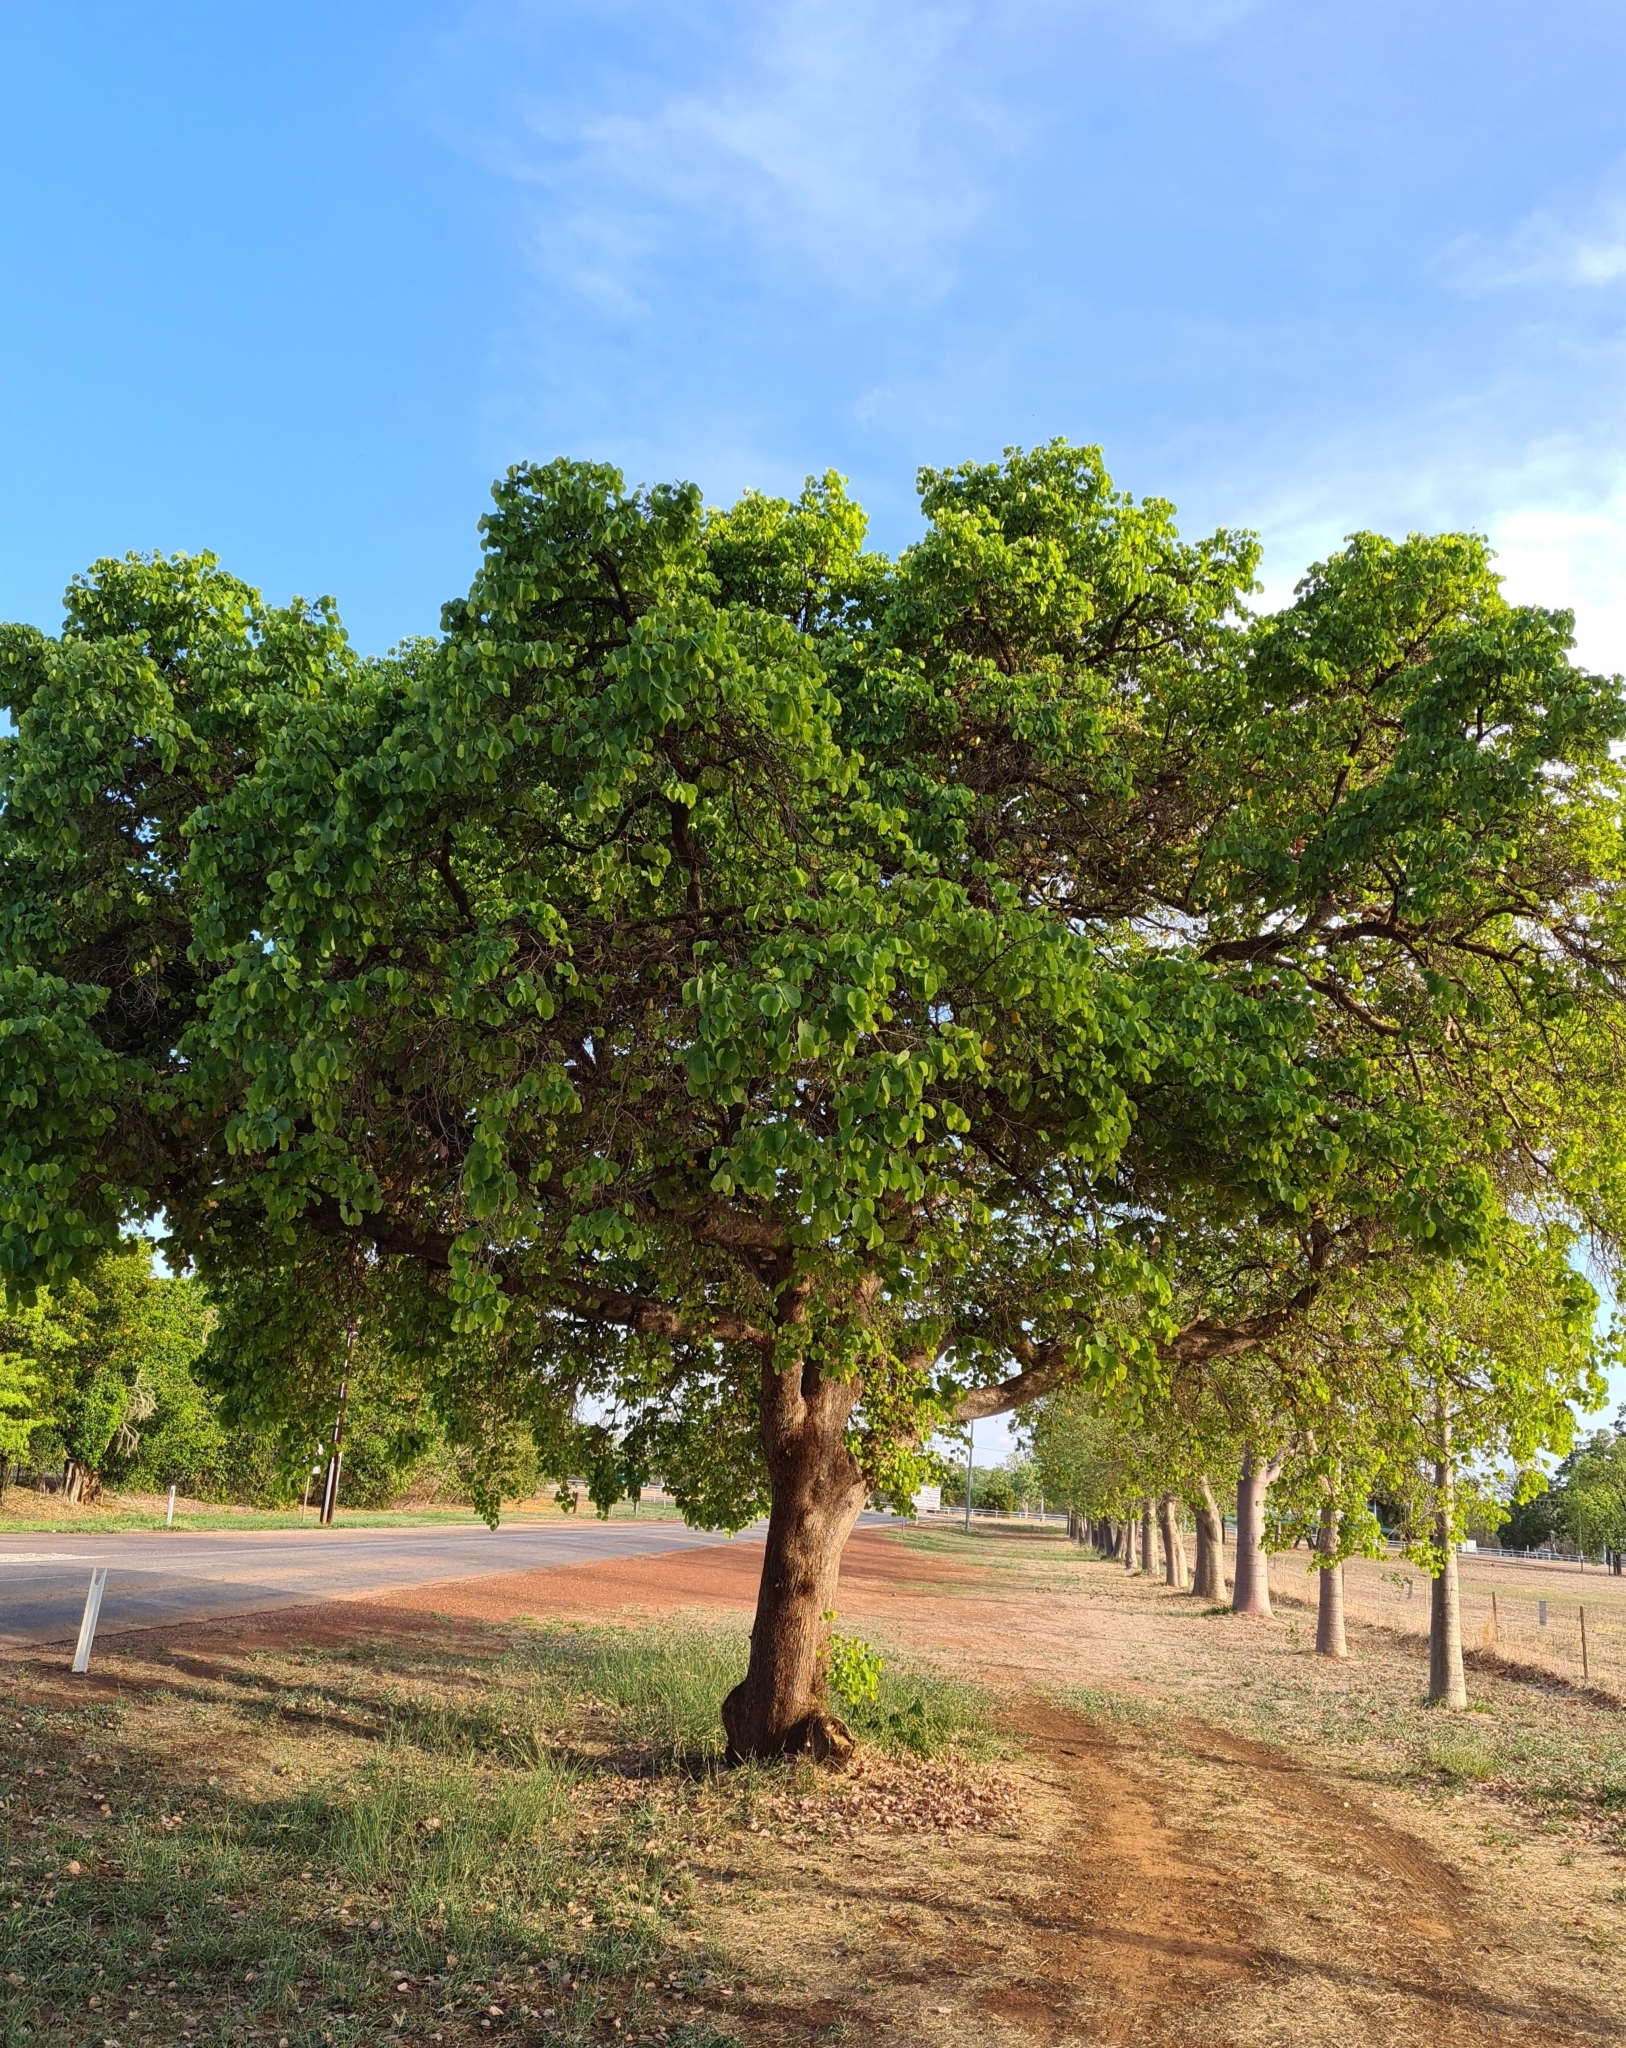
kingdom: Plantae
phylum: Tracheophyta
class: Magnoliopsida
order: Fabales
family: Fabaceae
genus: Piliostigma
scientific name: Piliostigma malabaricum
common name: Malabar bauhinia
